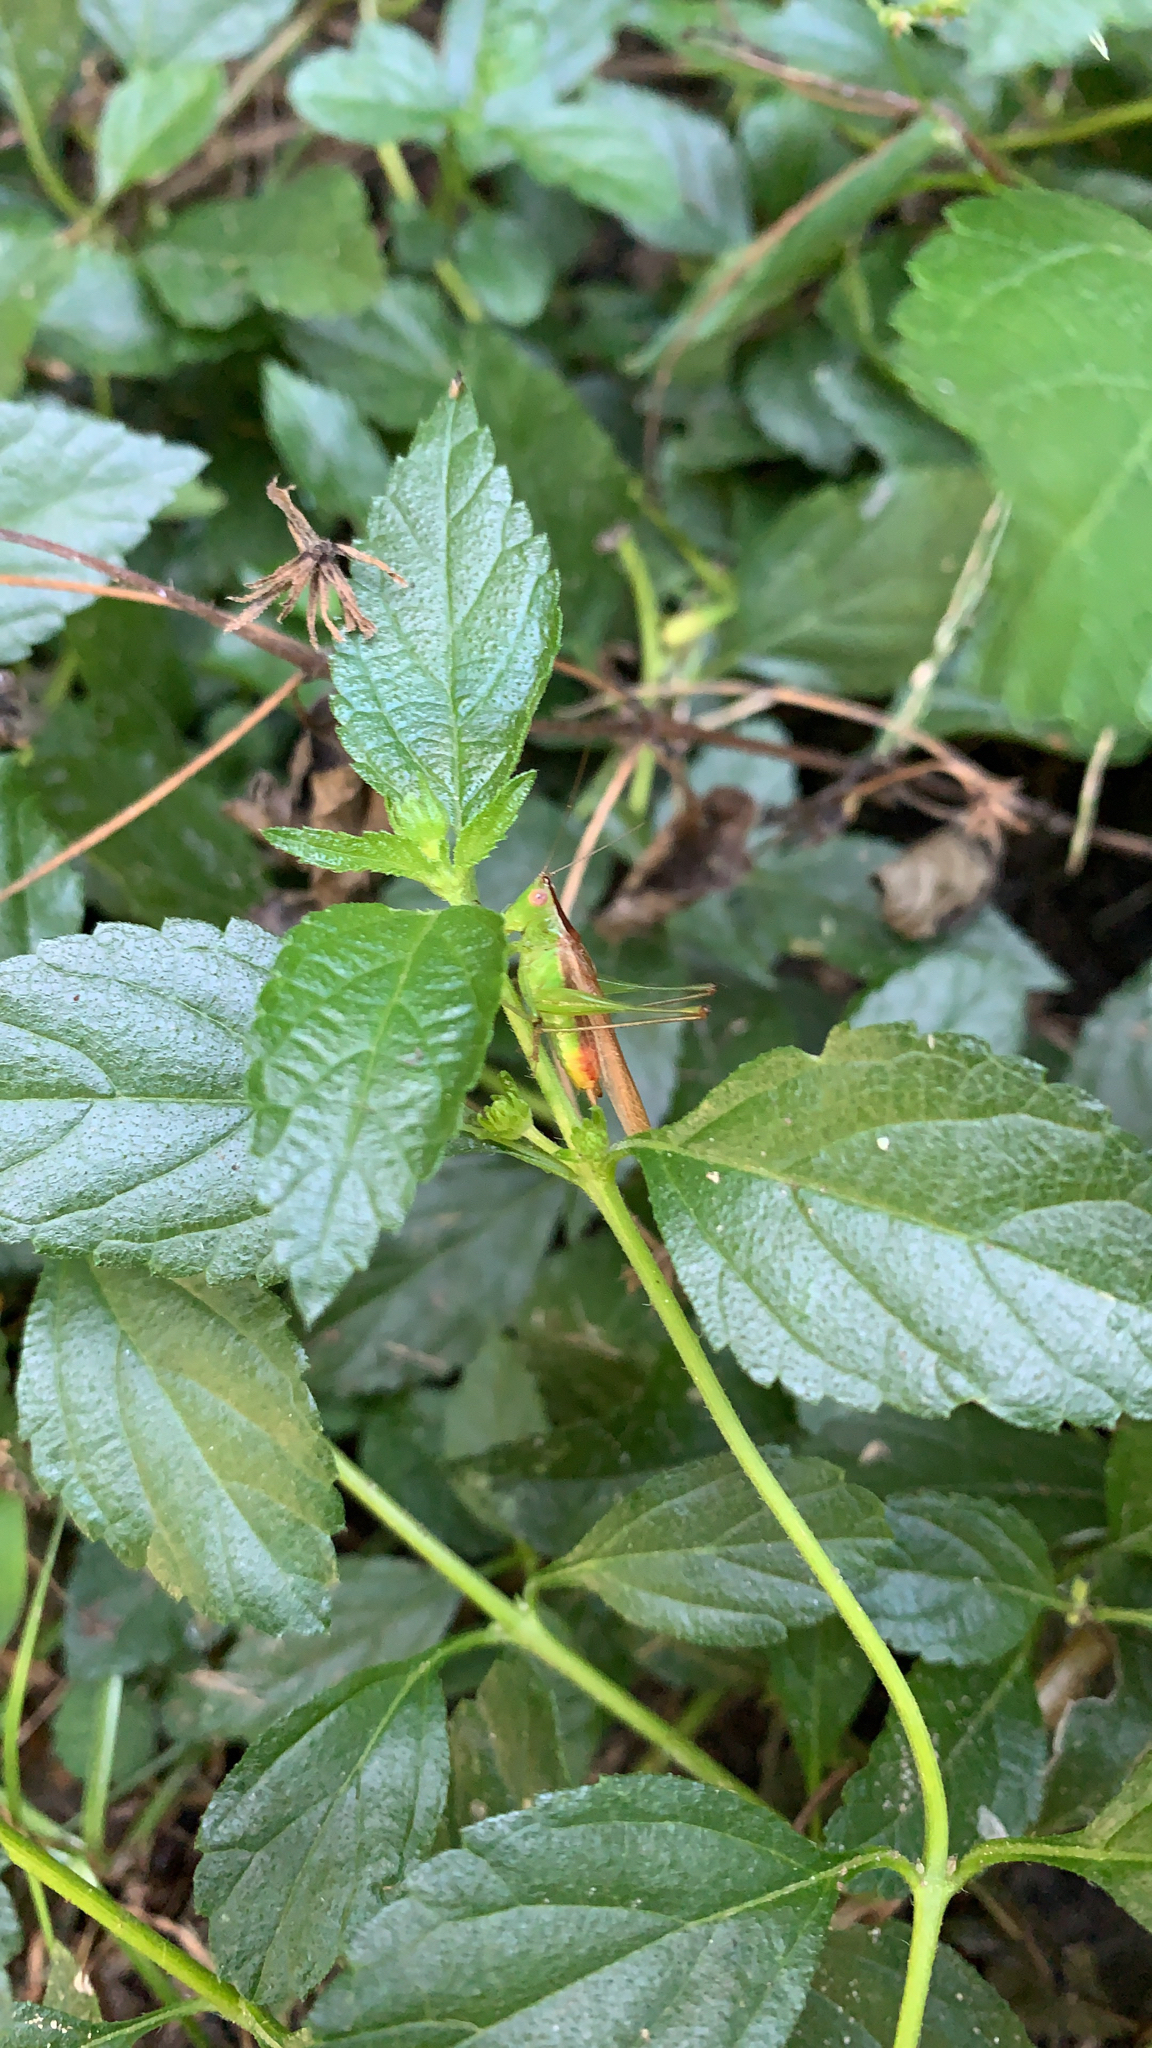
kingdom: Animalia
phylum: Arthropoda
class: Insecta
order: Orthoptera
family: Tettigoniidae
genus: Conocephalus
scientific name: Conocephalus brevipennis
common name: Short-winged meadow katydid
